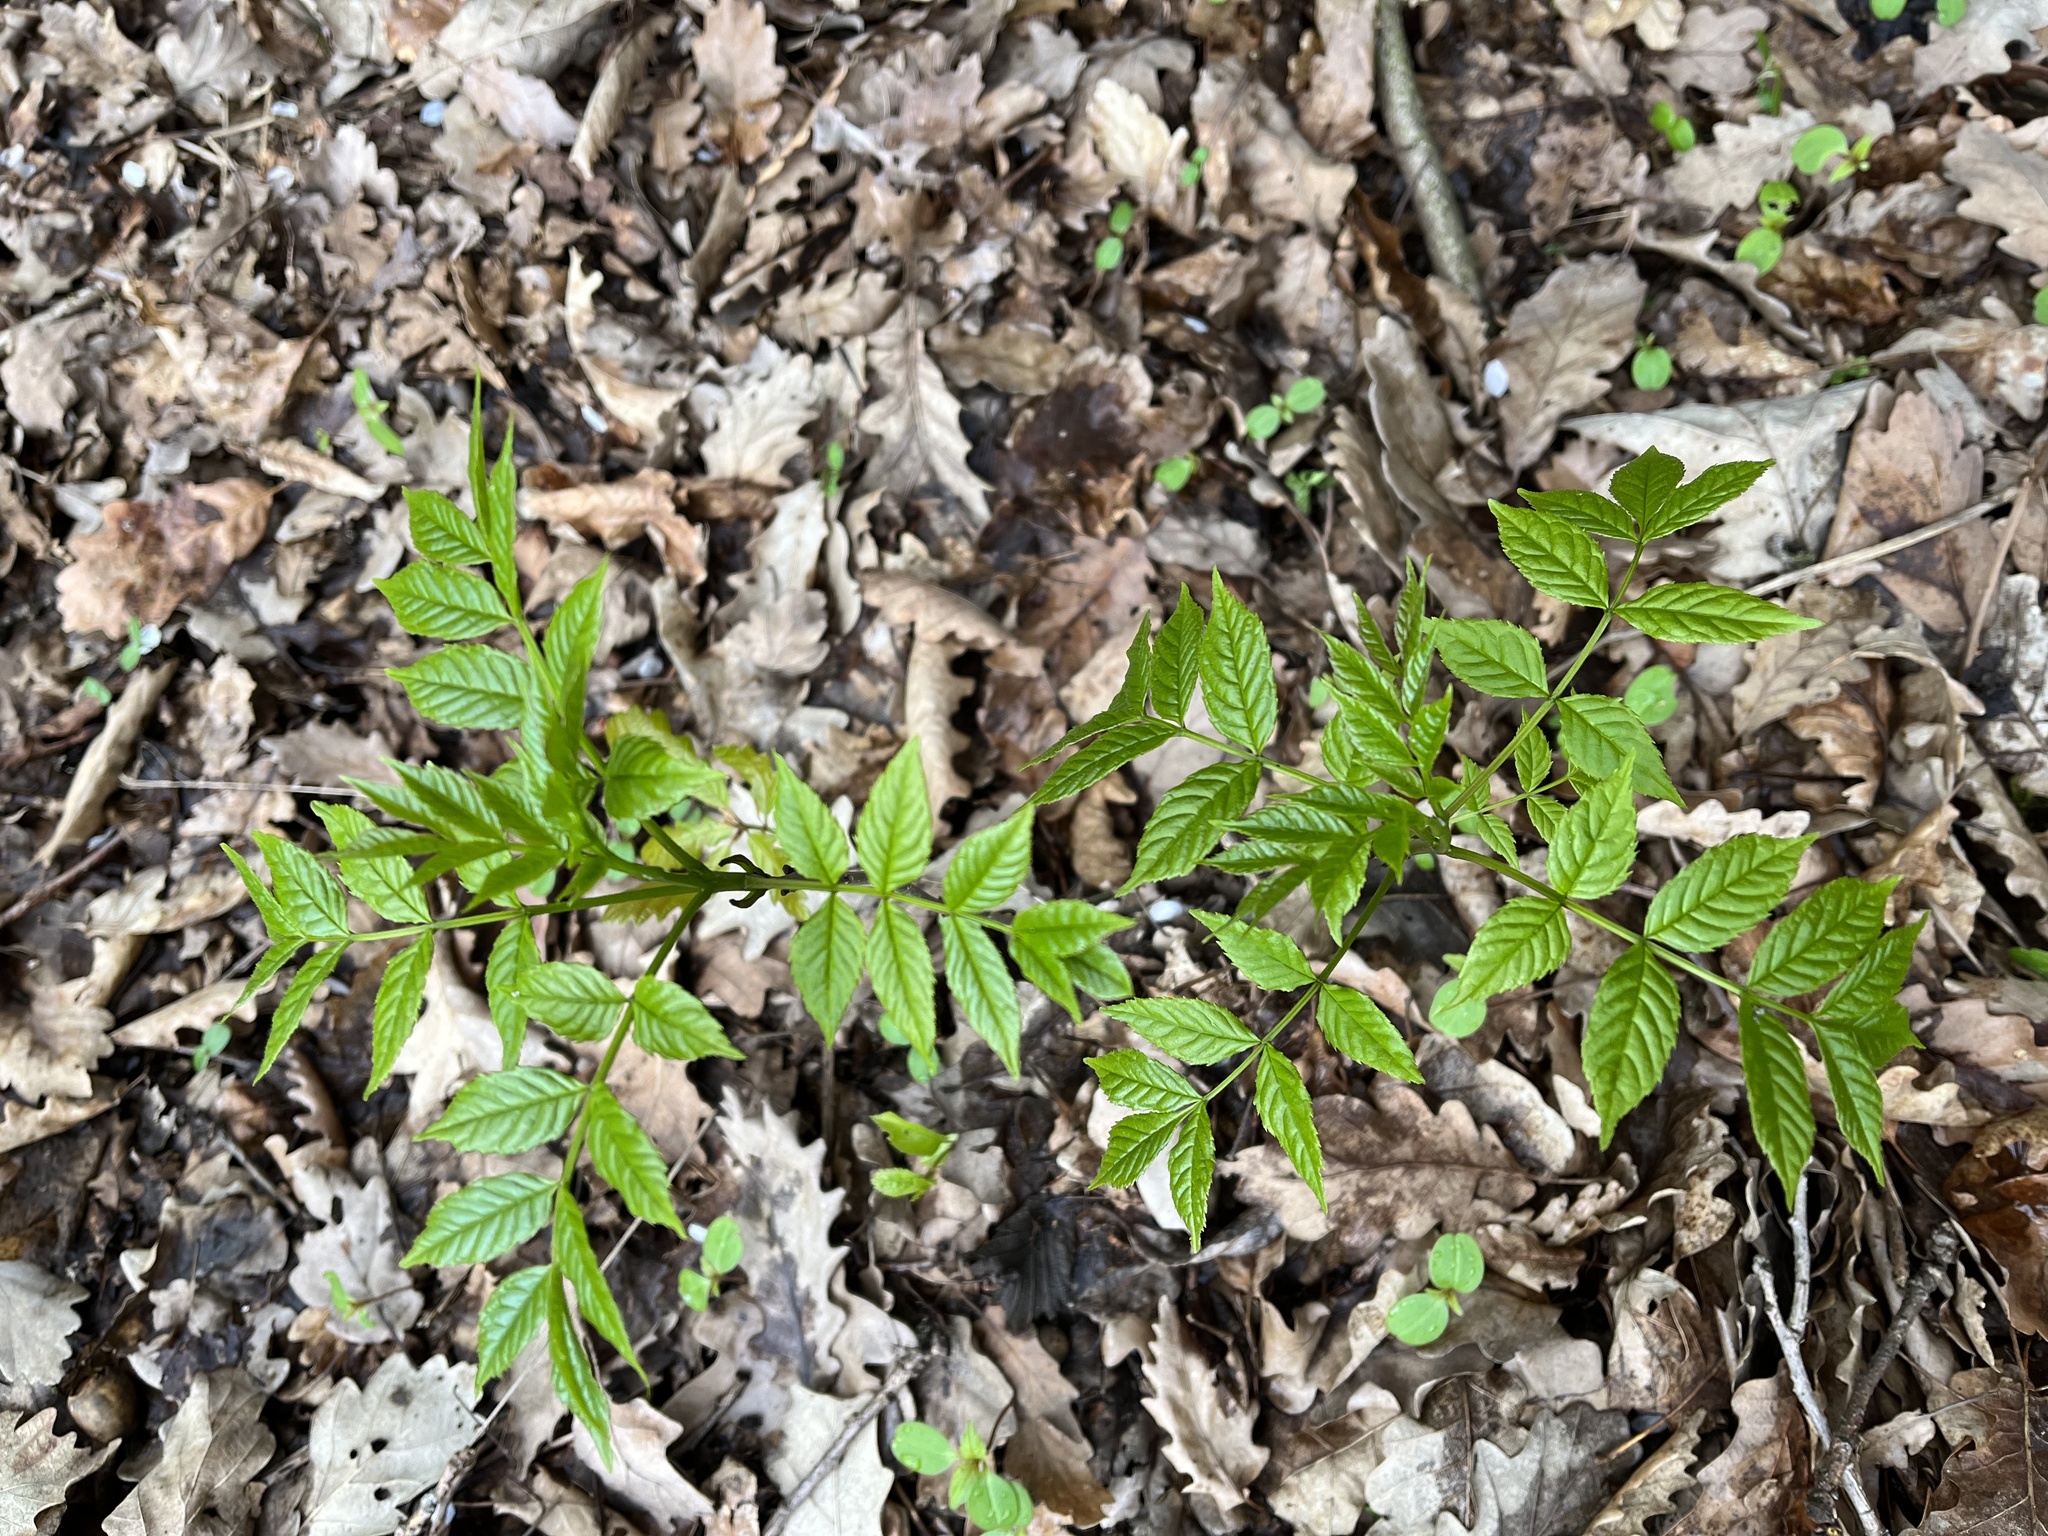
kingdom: Plantae
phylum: Tracheophyta
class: Magnoliopsida
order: Lamiales
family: Oleaceae
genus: Fraxinus
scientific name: Fraxinus excelsior
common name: European ash
